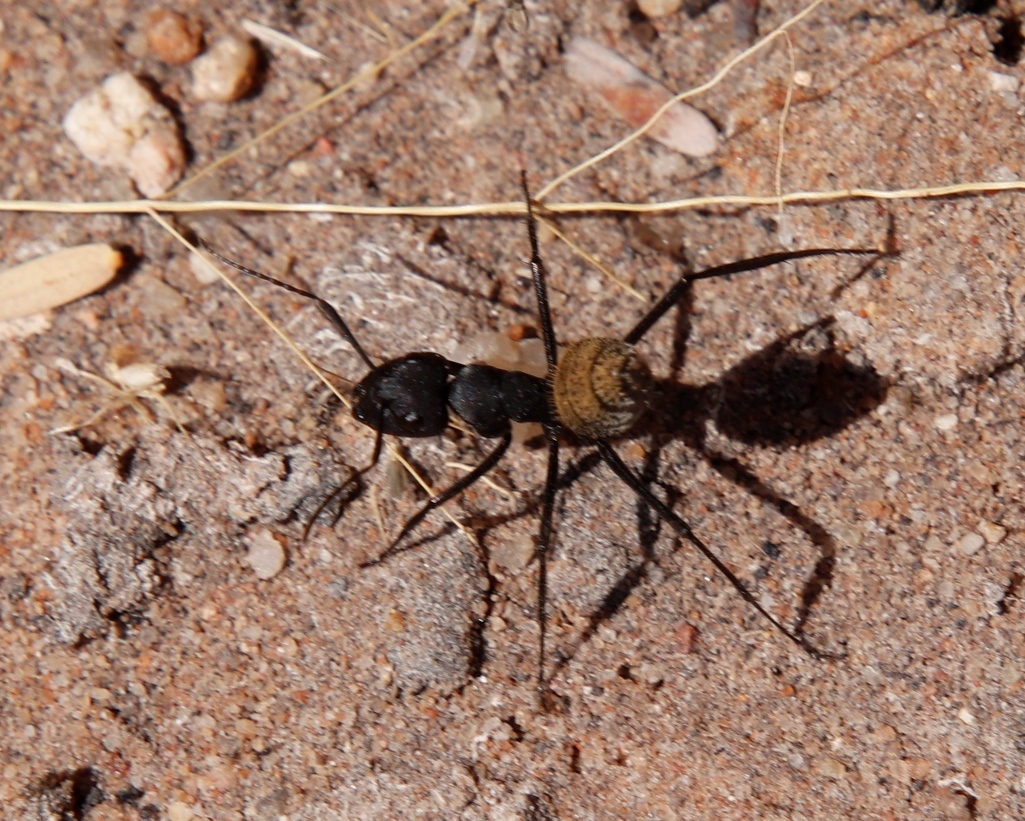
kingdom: Animalia
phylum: Arthropoda
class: Insecta
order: Hymenoptera
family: Formicidae
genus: Camponotus
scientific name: Camponotus fulvopilosus
